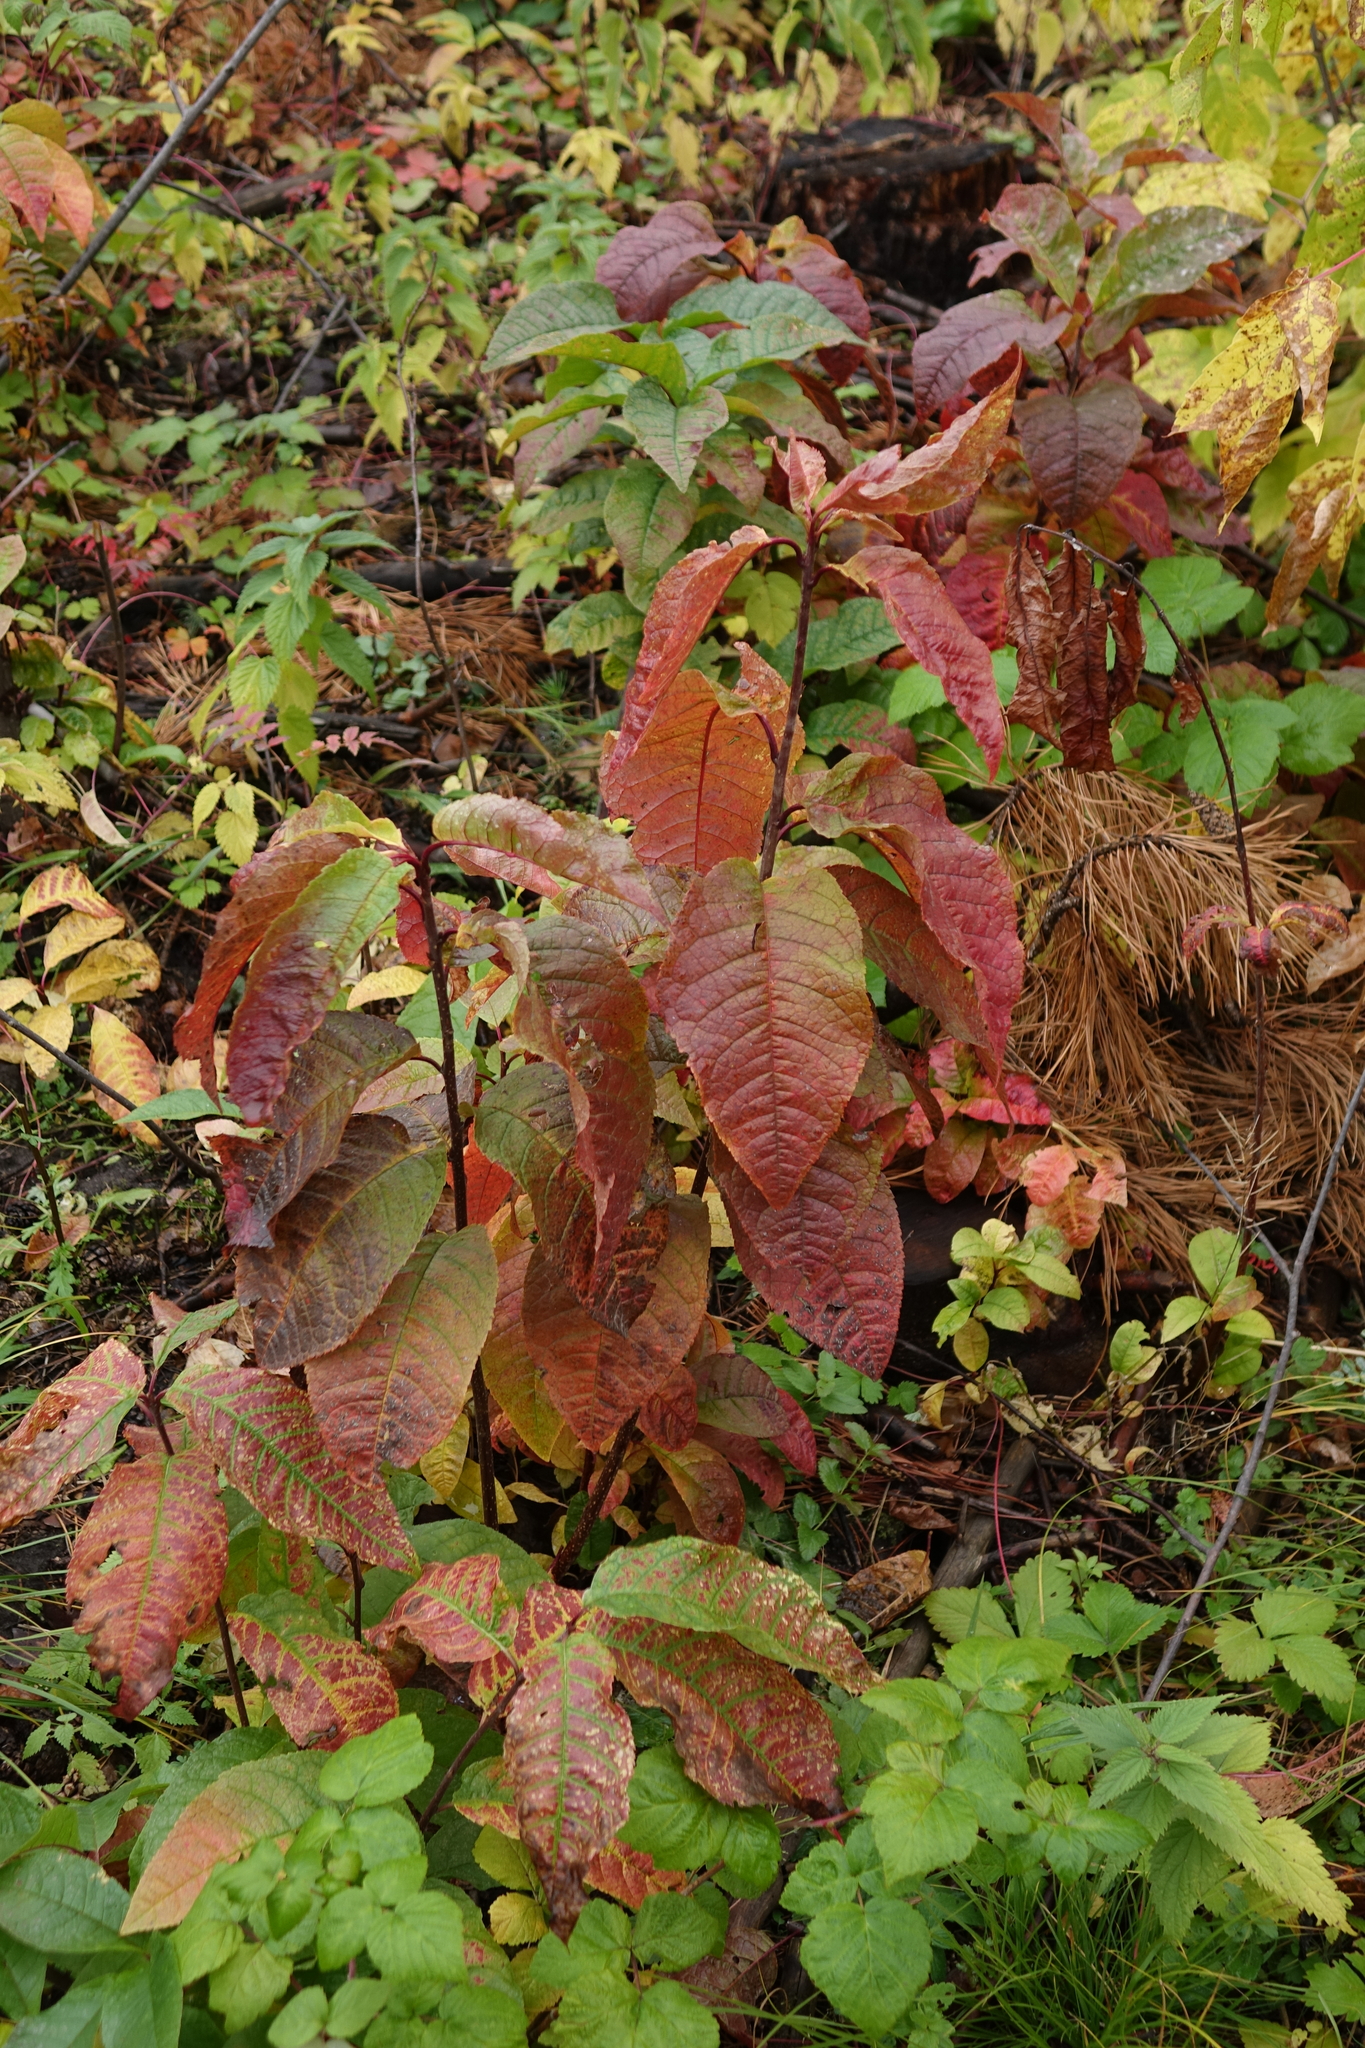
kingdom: Plantae
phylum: Tracheophyta
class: Magnoliopsida
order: Rosales
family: Rosaceae
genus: Prunus
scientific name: Prunus padus
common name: Bird cherry
